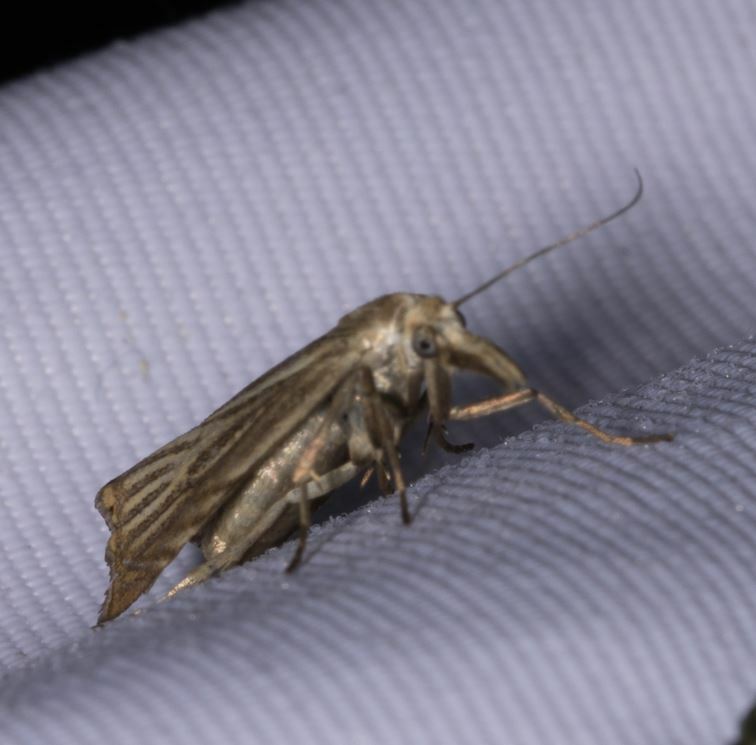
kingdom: Animalia
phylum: Arthropoda
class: Insecta
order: Lepidoptera
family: Crambidae
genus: Chrysoteuchia
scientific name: Chrysoteuchia culmella
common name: Garden grass-veneer
